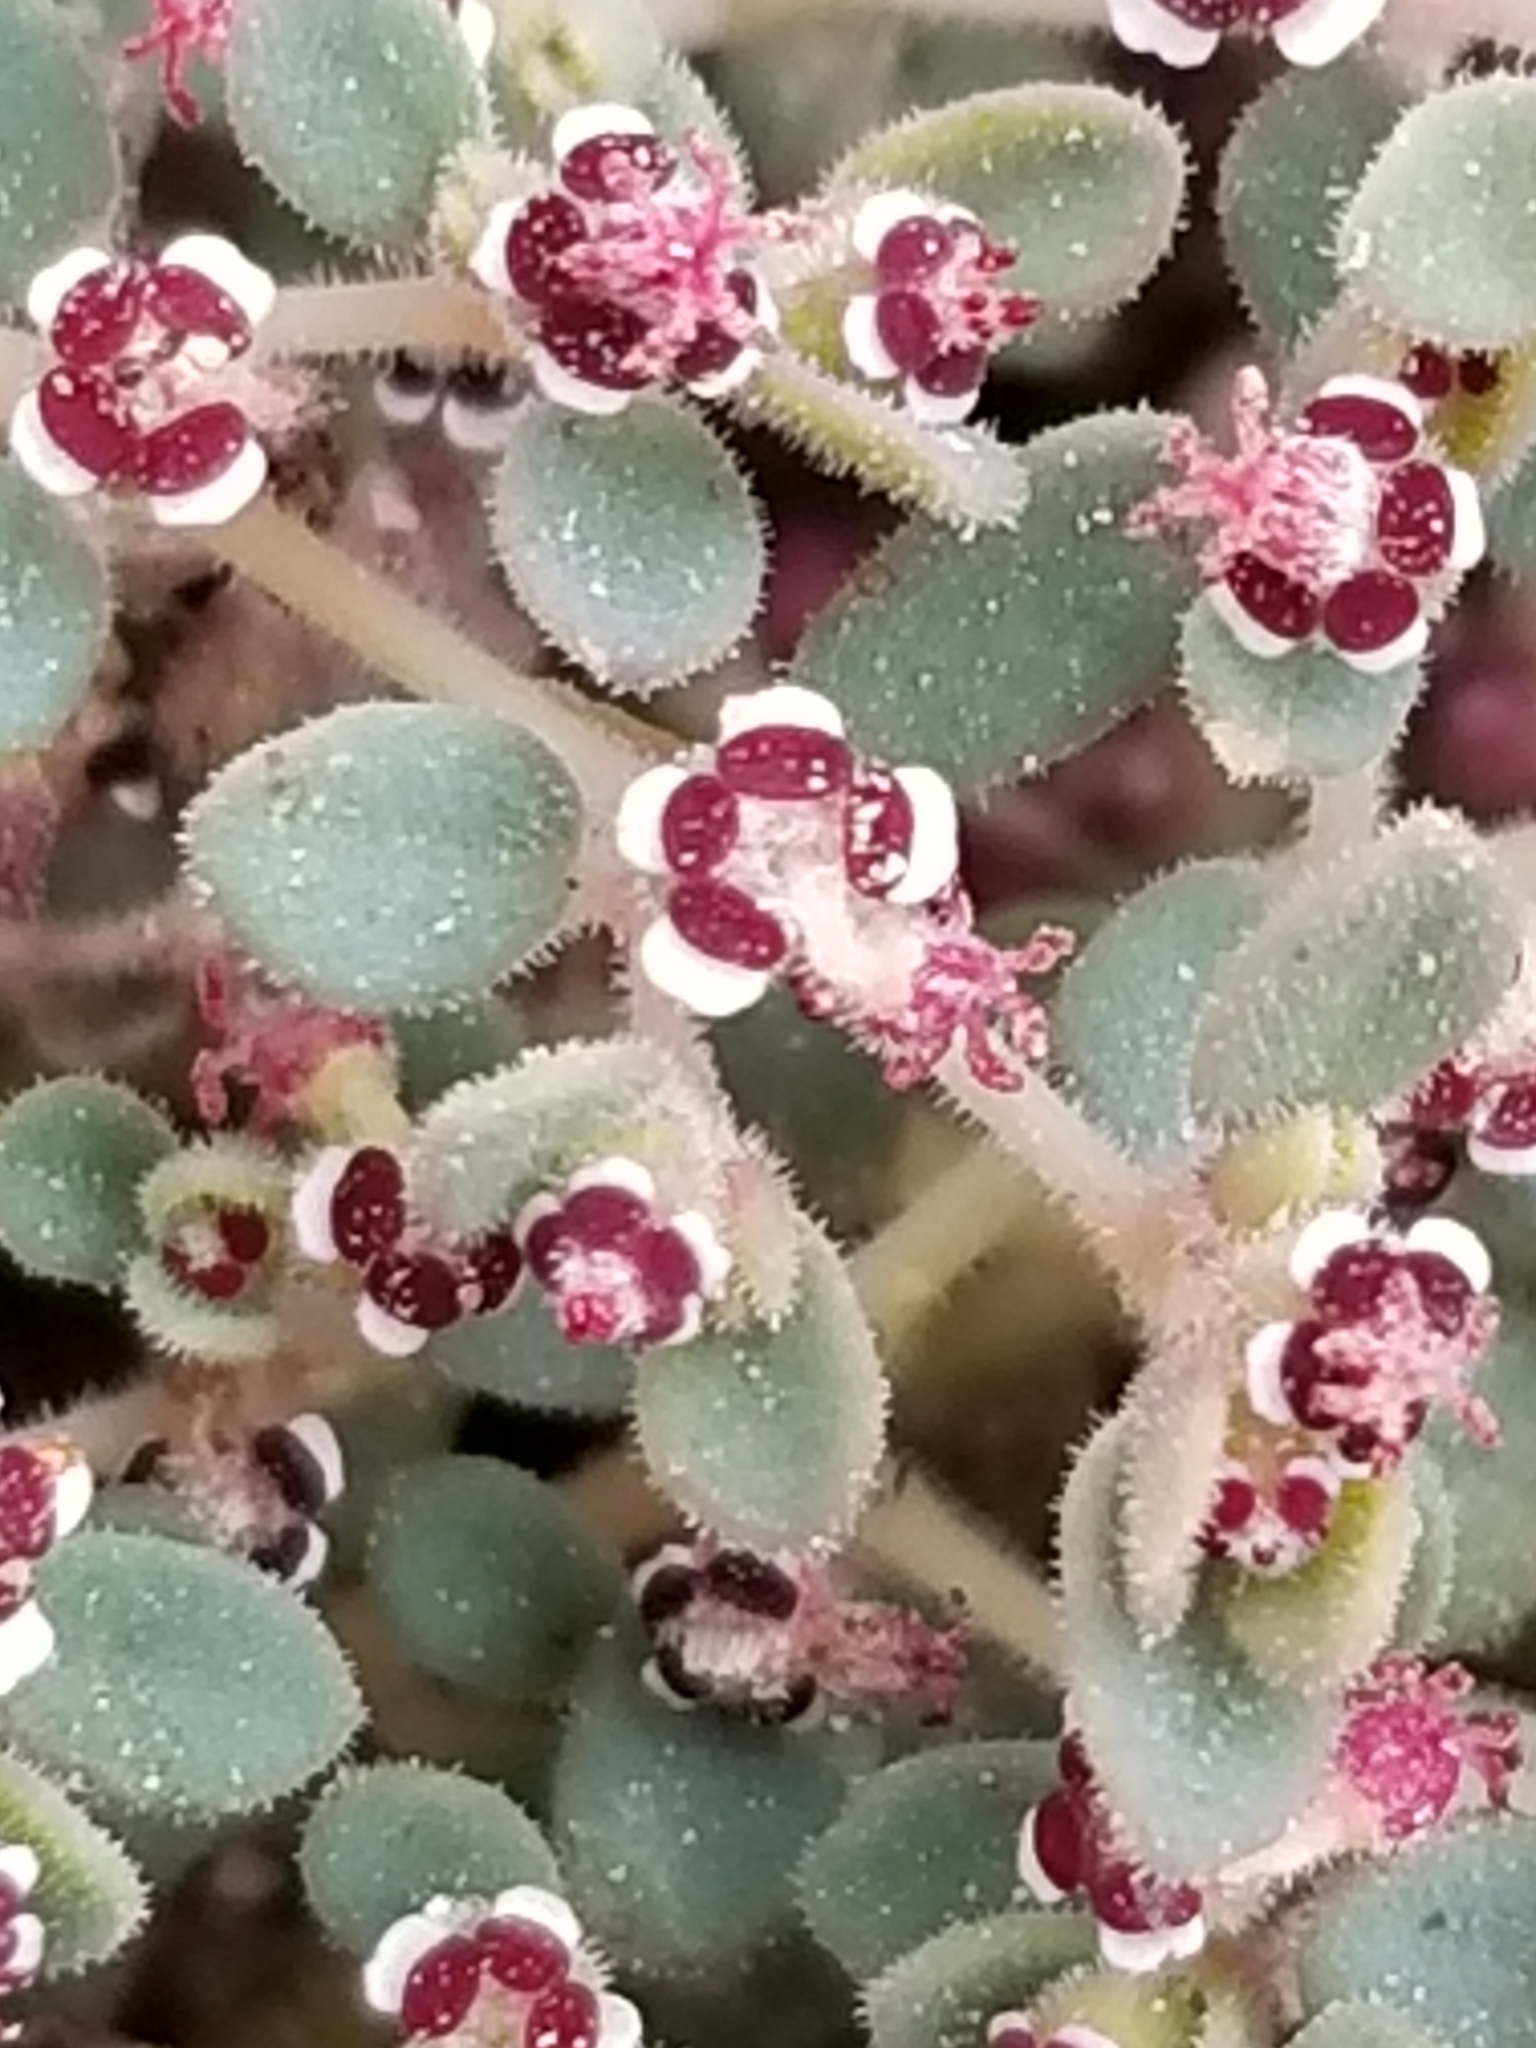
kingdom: Plantae
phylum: Tracheophyta
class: Magnoliopsida
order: Malpighiales
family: Euphorbiaceae
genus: Euphorbia
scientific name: Euphorbia polycarpa
